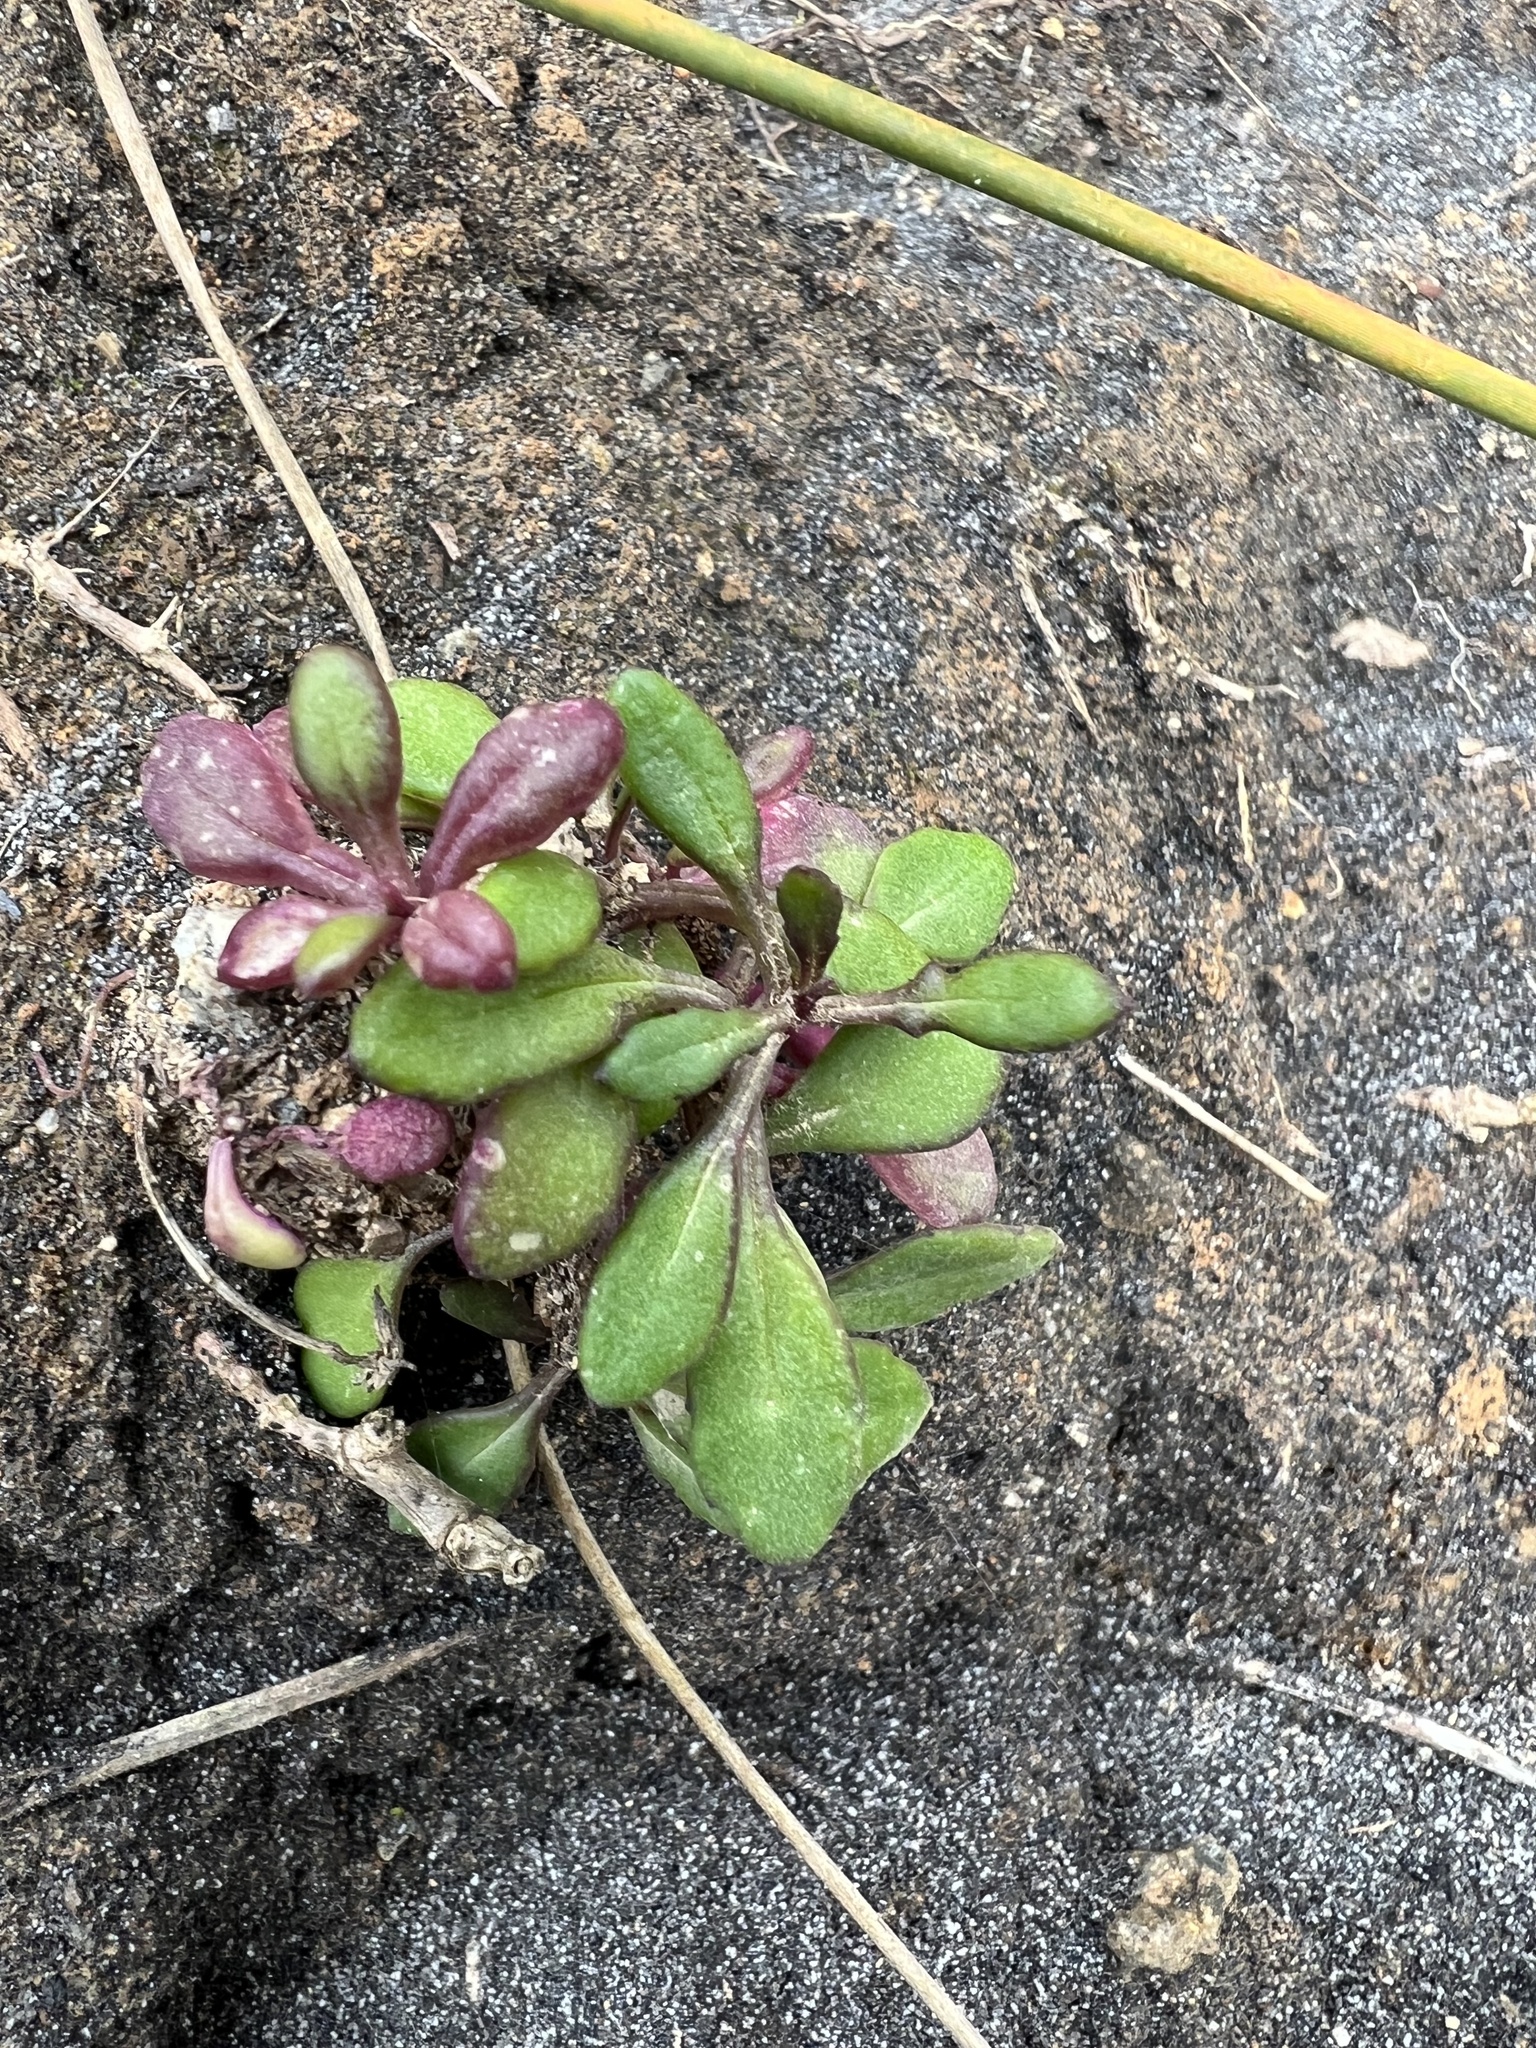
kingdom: Plantae
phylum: Tracheophyta
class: Magnoliopsida
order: Asterales
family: Asteraceae
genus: Senecio
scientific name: Senecio lautus
